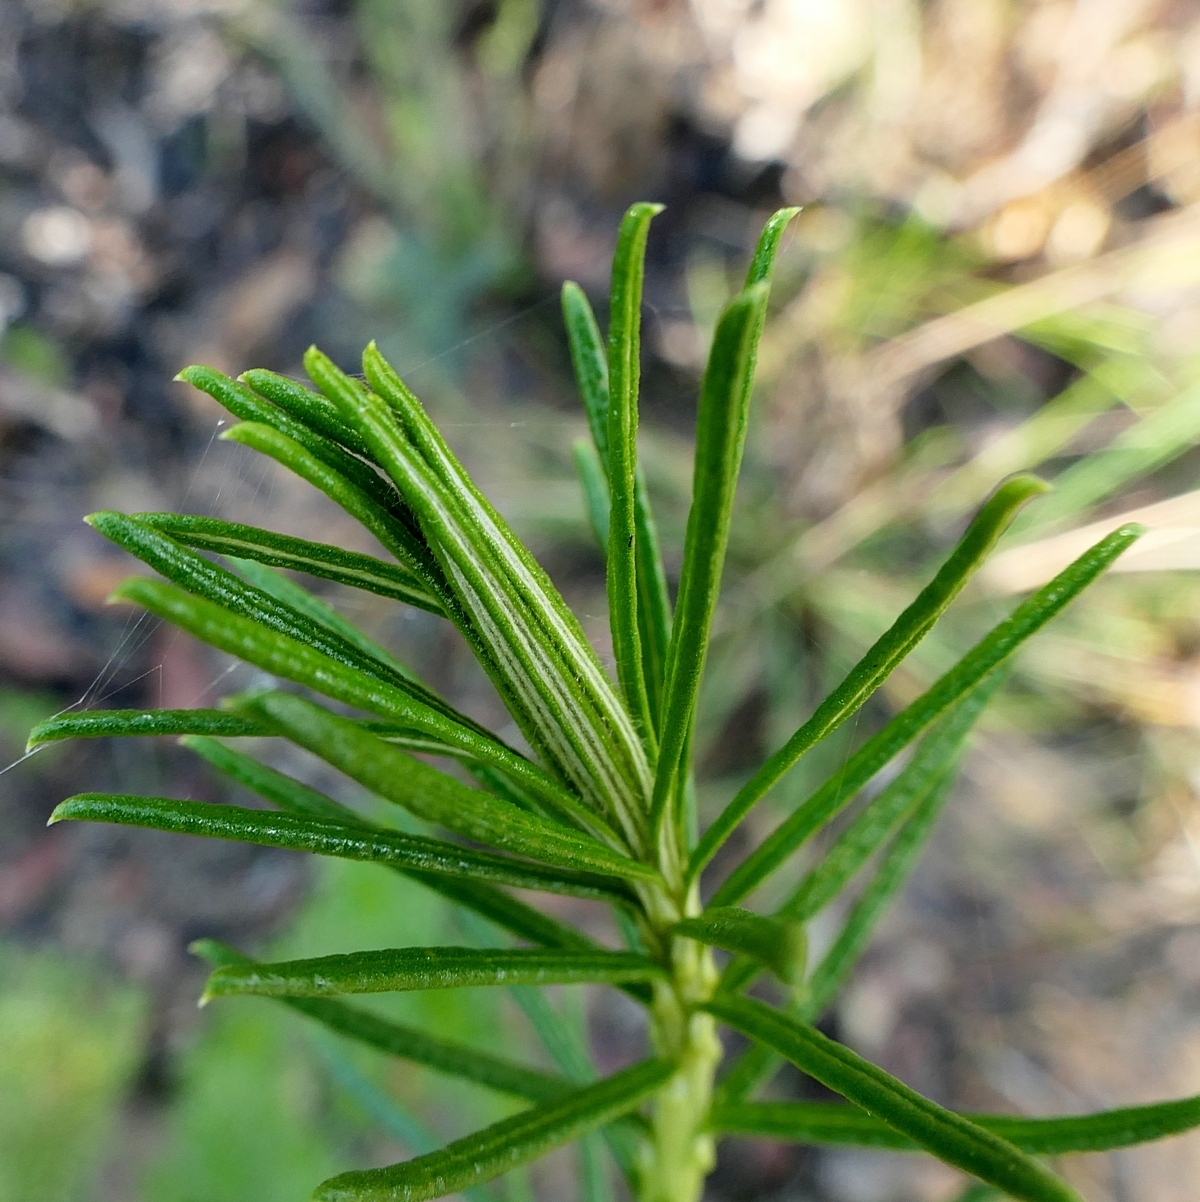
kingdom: Plantae
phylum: Tracheophyta
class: Magnoliopsida
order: Asterales
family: Asteraceae
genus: Cassinia
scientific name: Cassinia maritima
